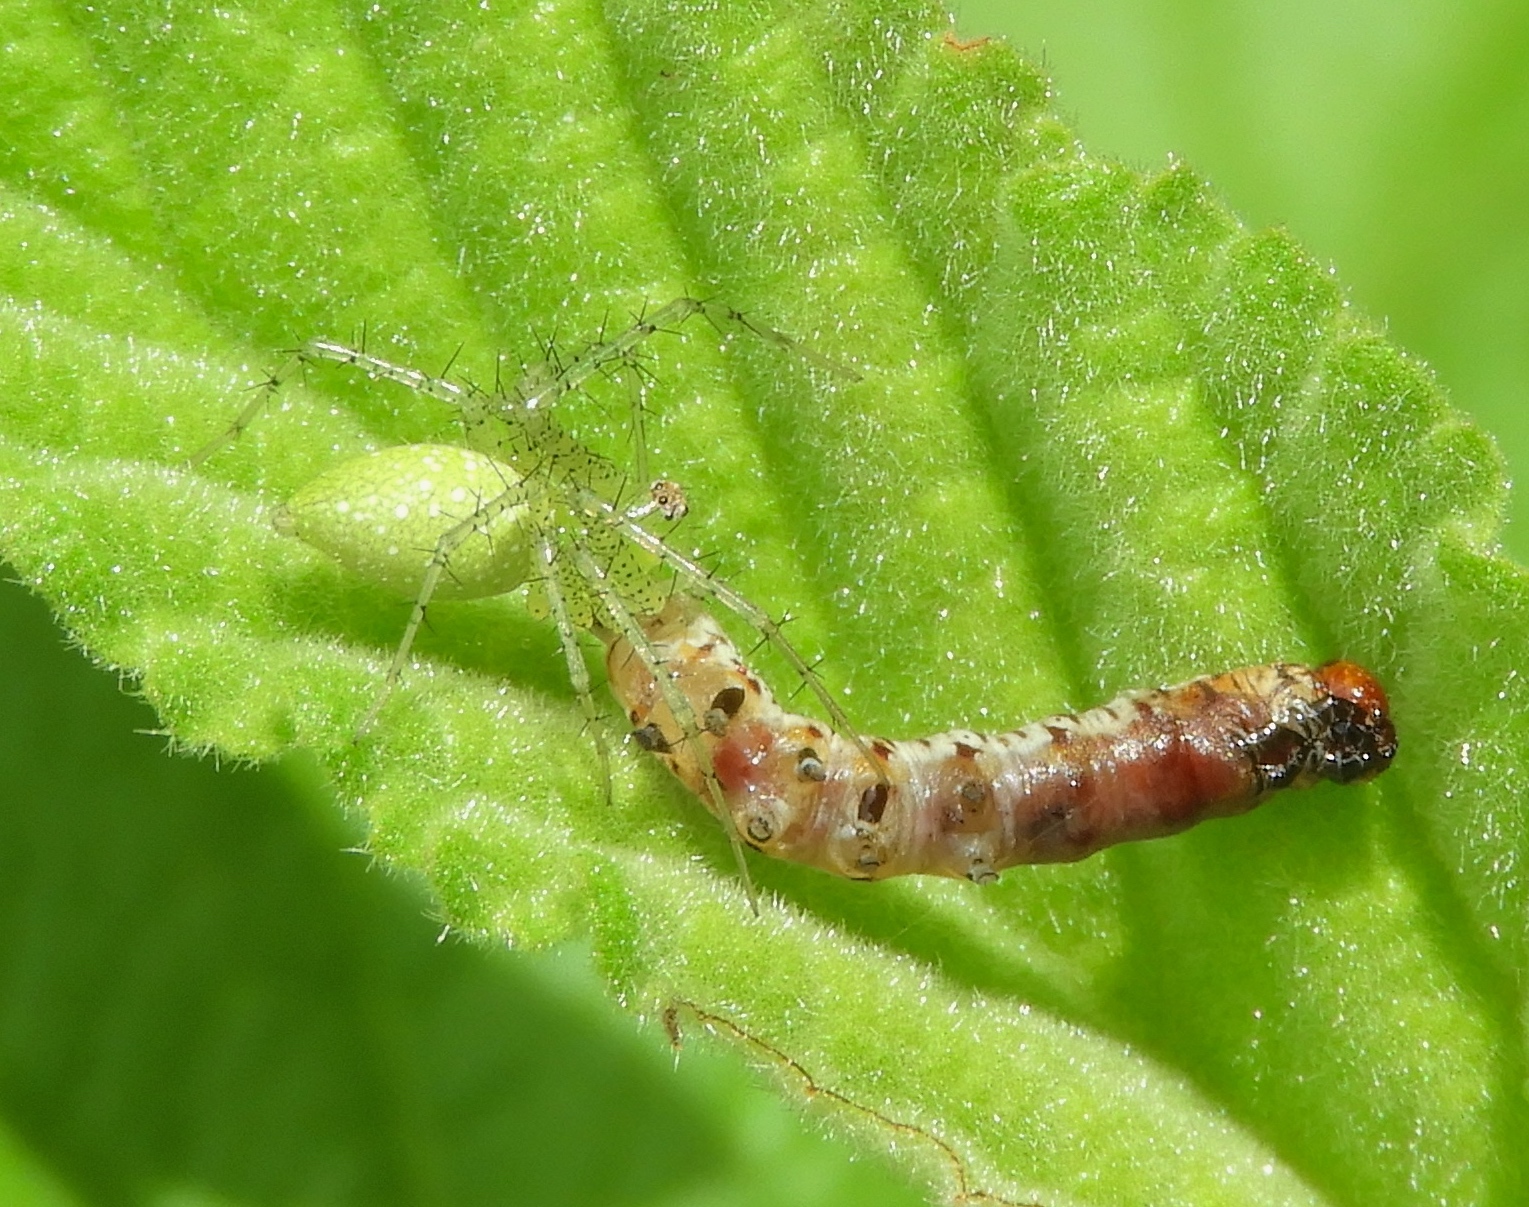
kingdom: Animalia
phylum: Arthropoda
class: Arachnida
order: Araneae
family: Oxyopidae
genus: Peucetia
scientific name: Peucetia
